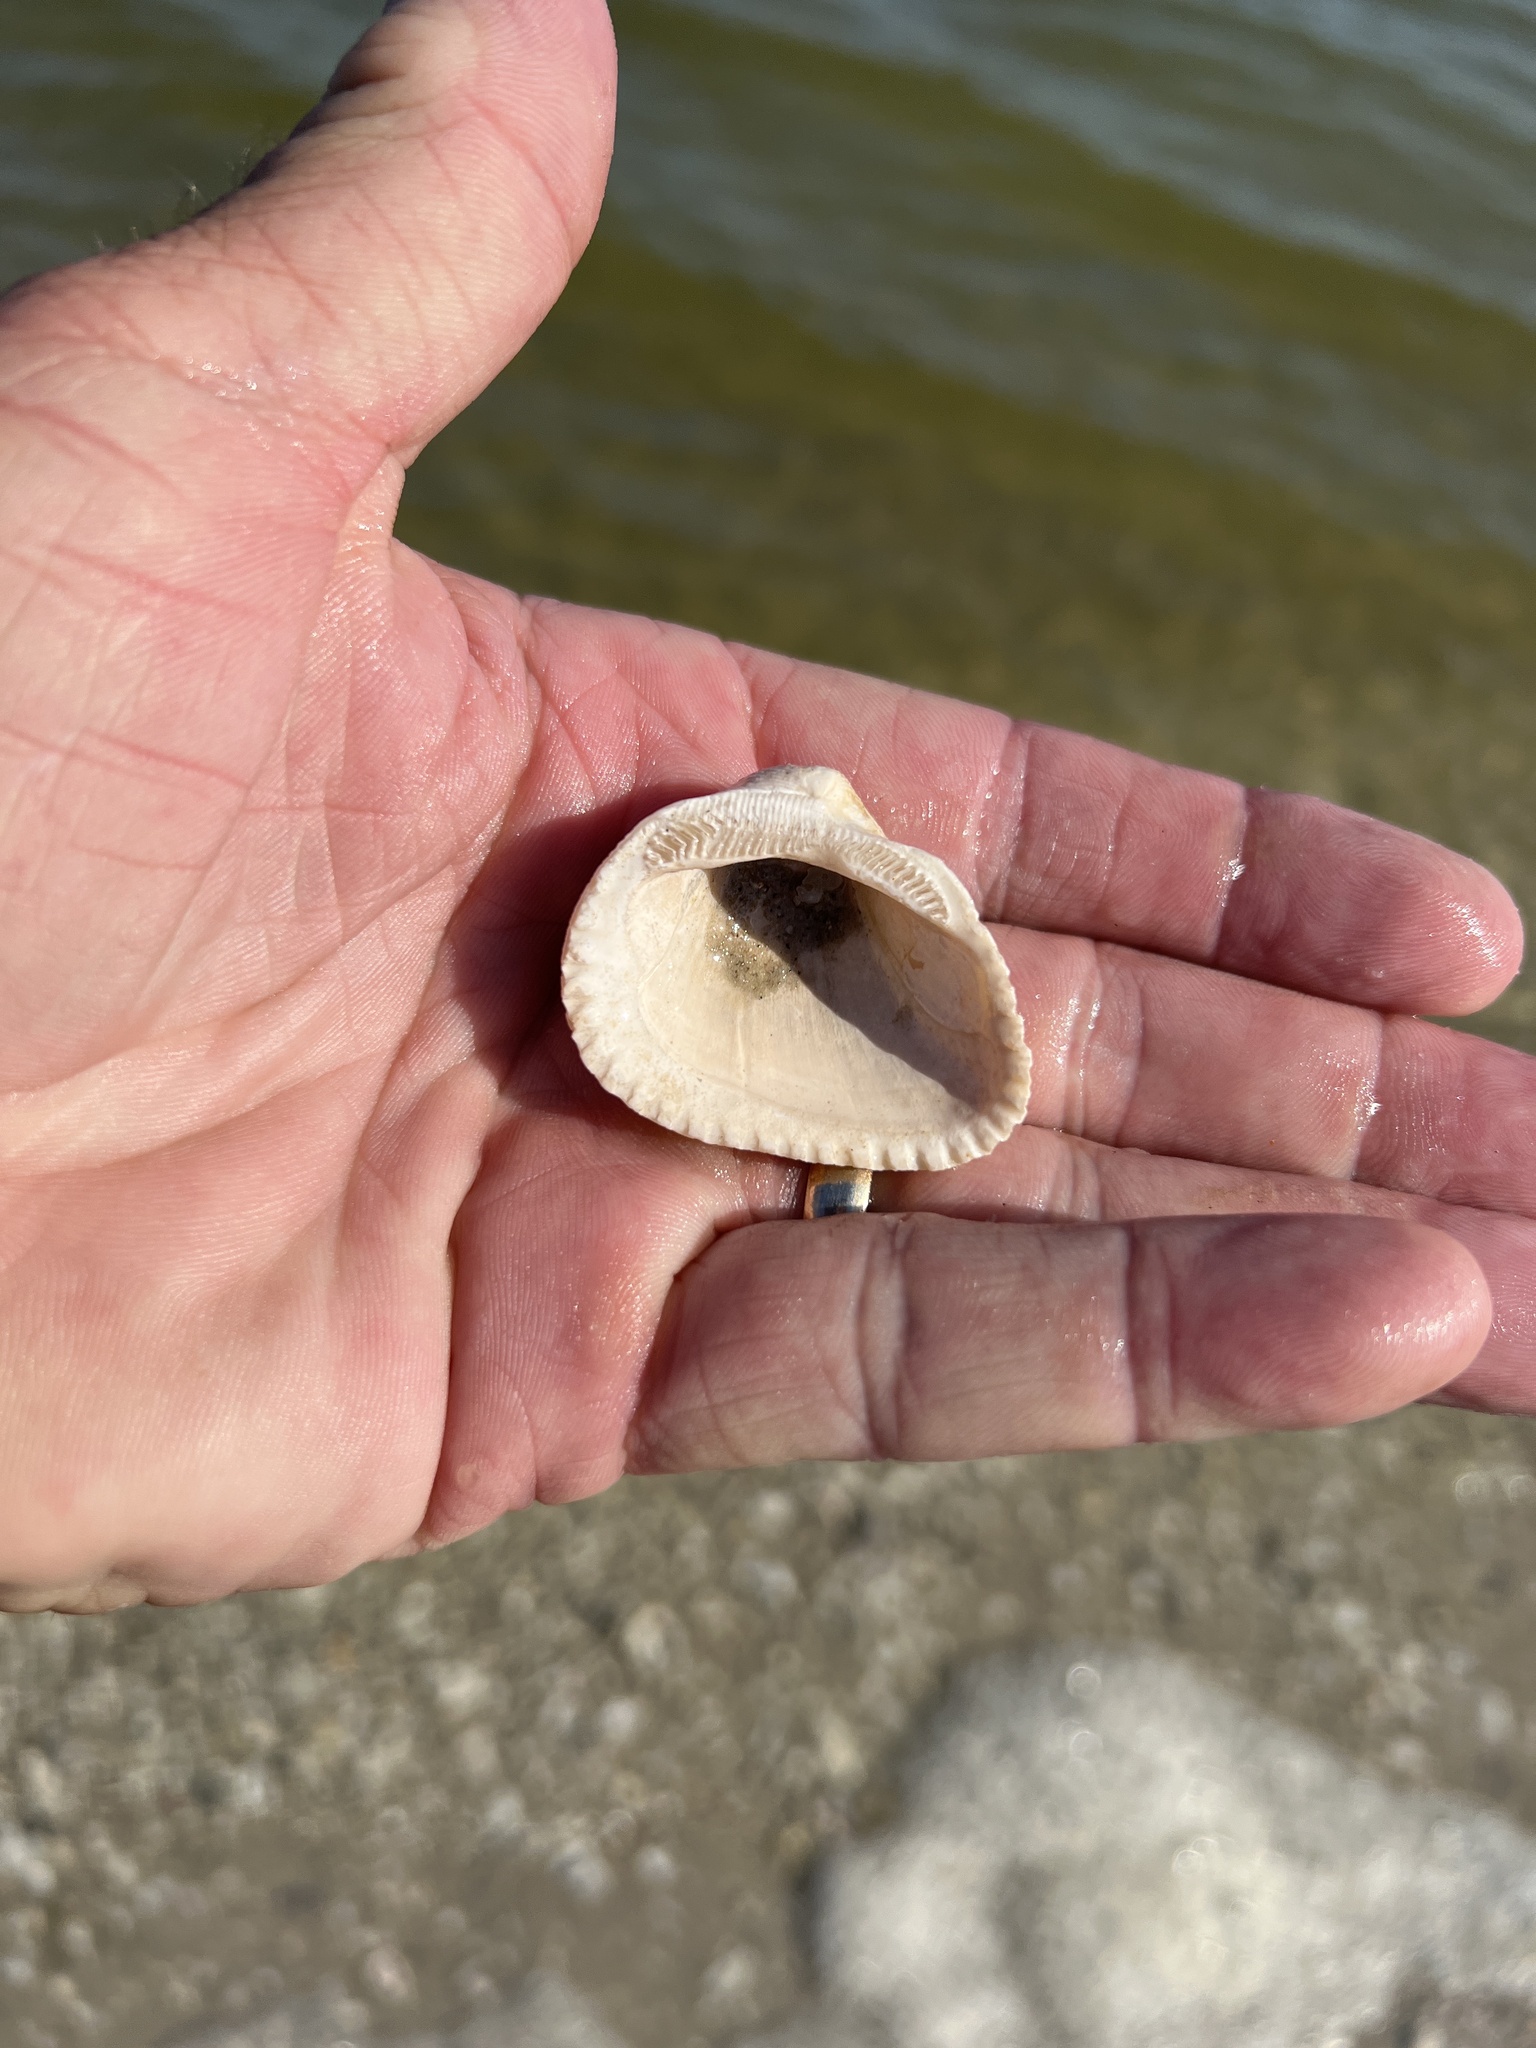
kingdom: Animalia
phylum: Mollusca
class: Bivalvia
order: Arcida
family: Noetiidae
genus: Noetia
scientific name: Noetia ponderosa
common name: Ponderous ark
